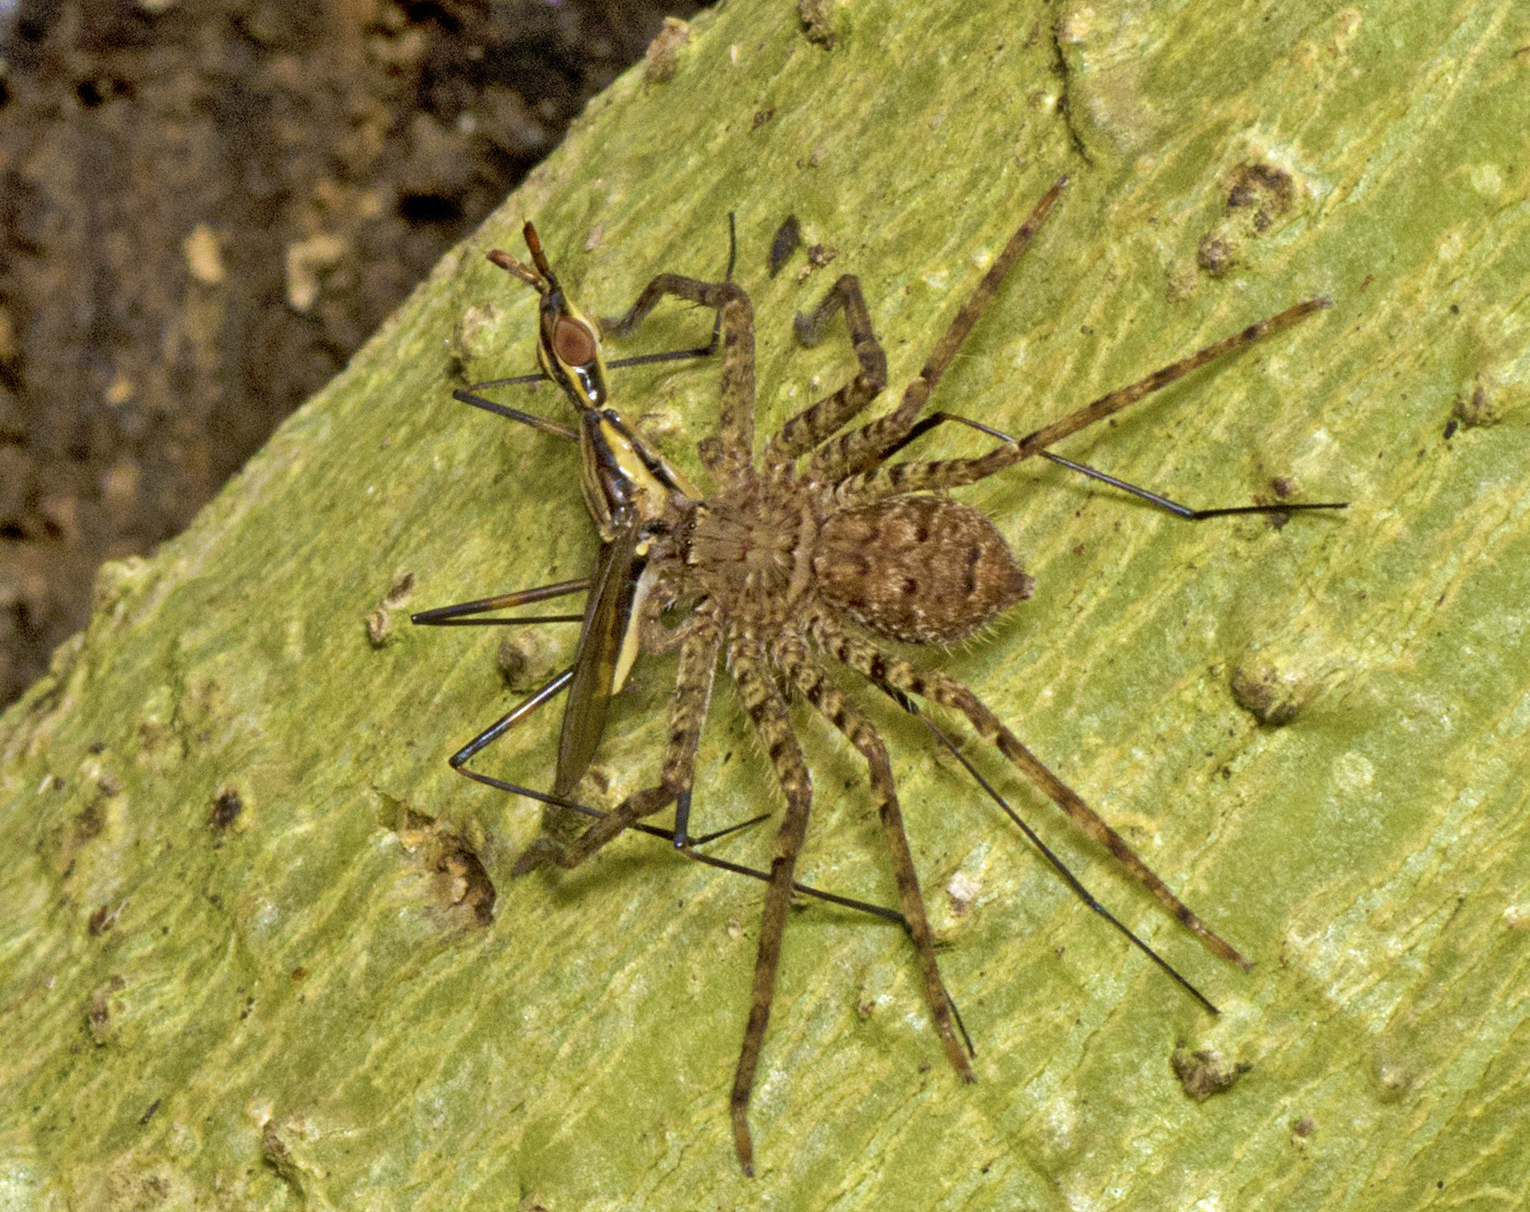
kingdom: Animalia
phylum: Arthropoda
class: Insecta
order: Diptera
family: Neriidae
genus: Derocephalus
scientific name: Derocephalus angusticollis
